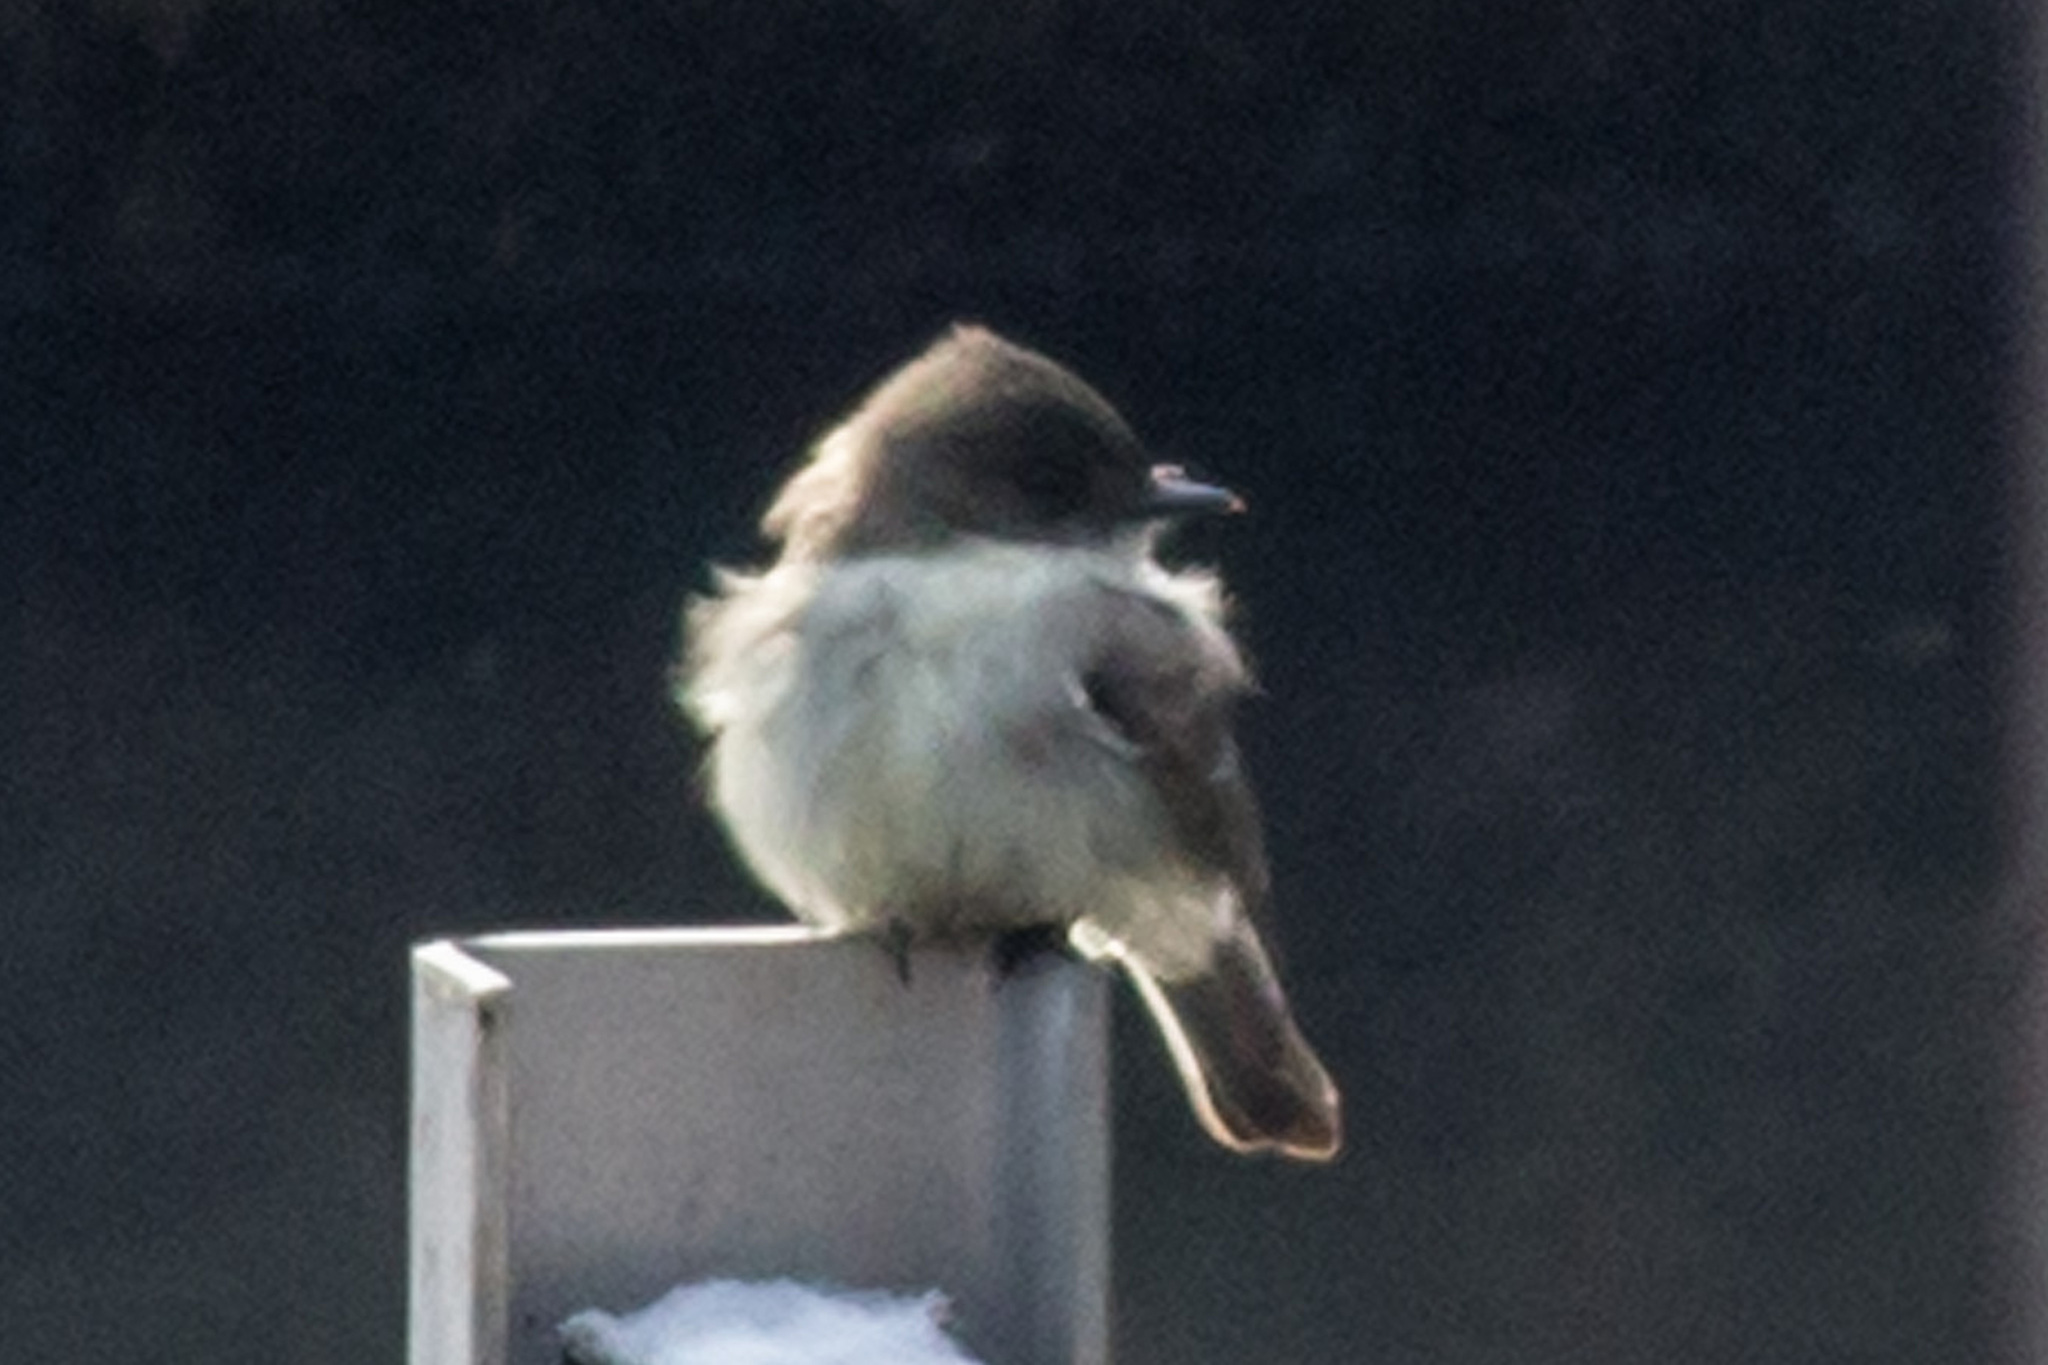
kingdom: Animalia
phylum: Chordata
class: Aves
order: Passeriformes
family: Tyrannidae
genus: Sayornis
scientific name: Sayornis phoebe
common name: Eastern phoebe
